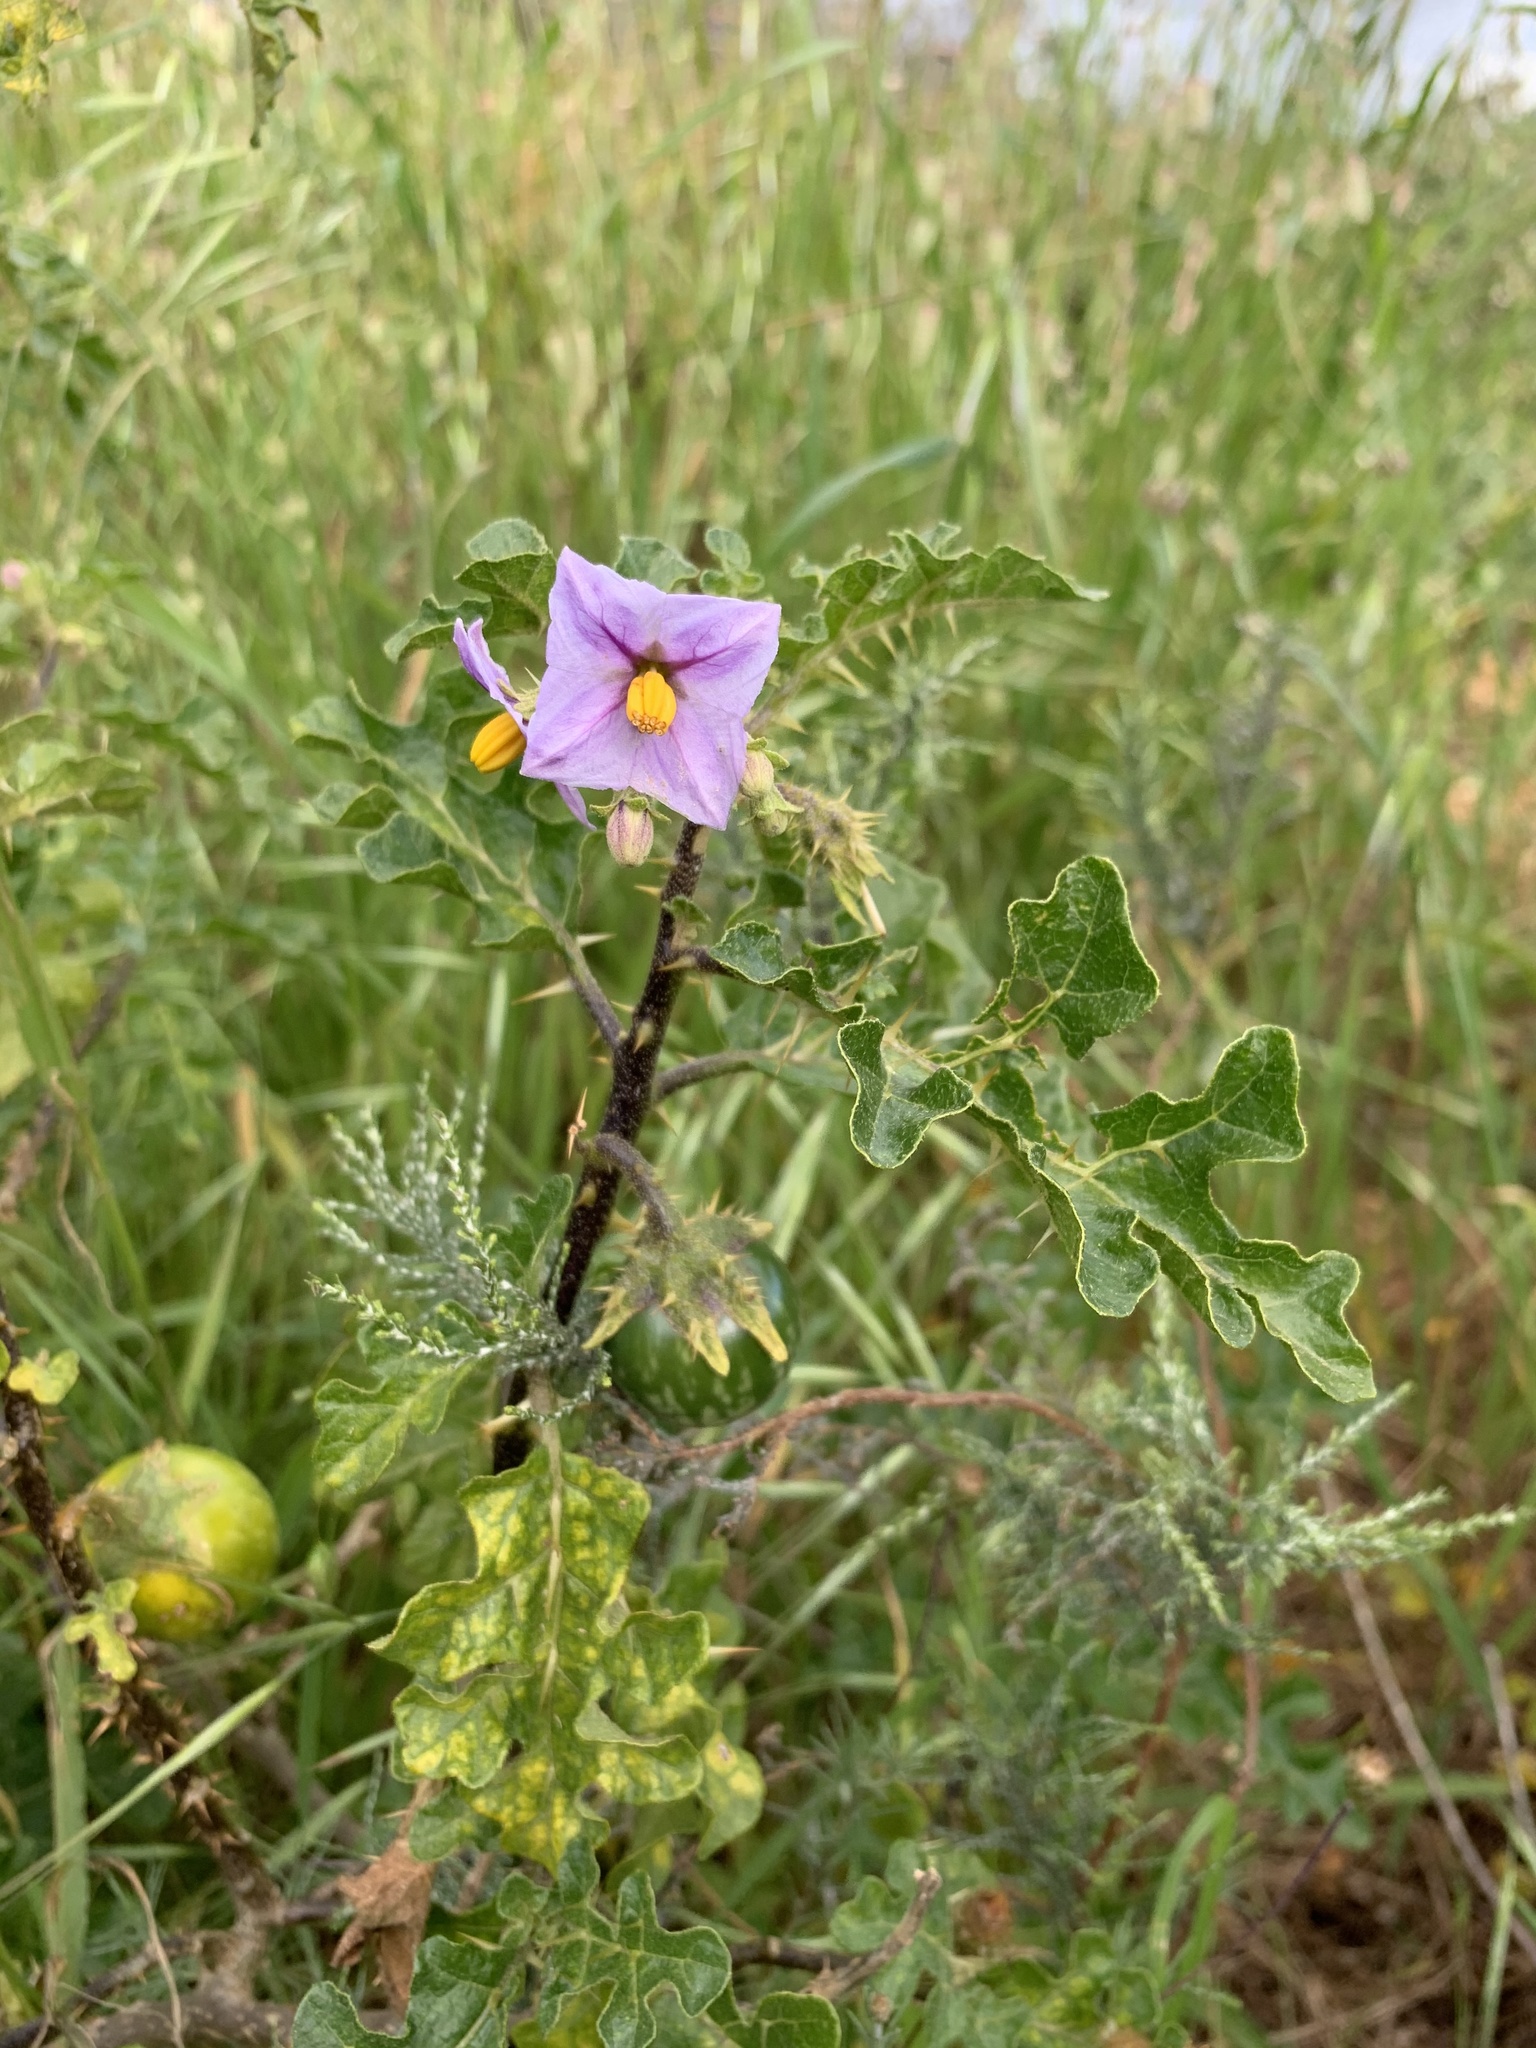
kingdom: Plantae
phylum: Tracheophyta
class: Magnoliopsida
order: Solanales
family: Solanaceae
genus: Solanum
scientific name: Solanum linnaeanum
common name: Nightshade
